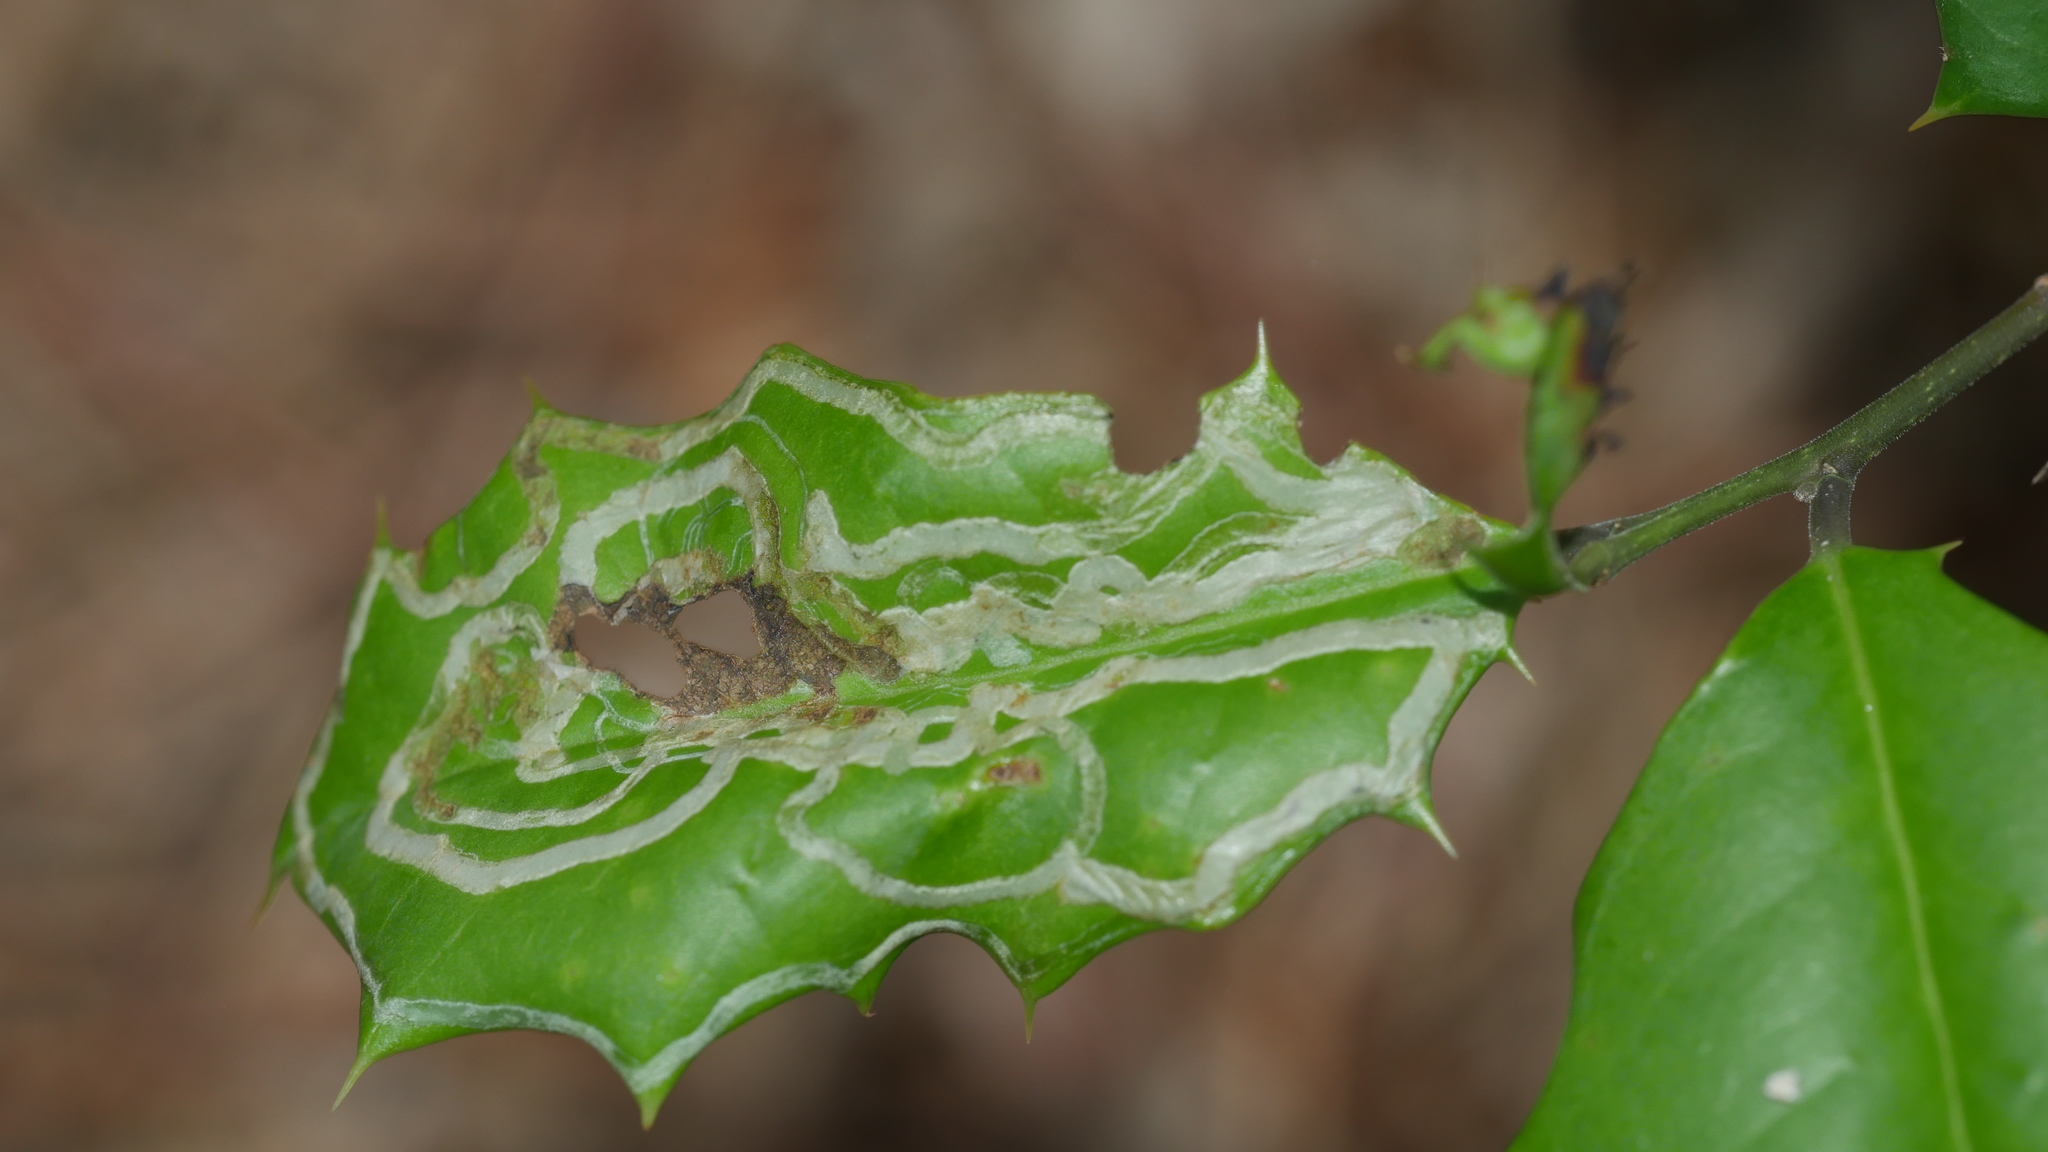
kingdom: Animalia
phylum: Arthropoda
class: Insecta
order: Diptera
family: Agromyzidae
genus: Phytomyza
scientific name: Phytomyza opacae
